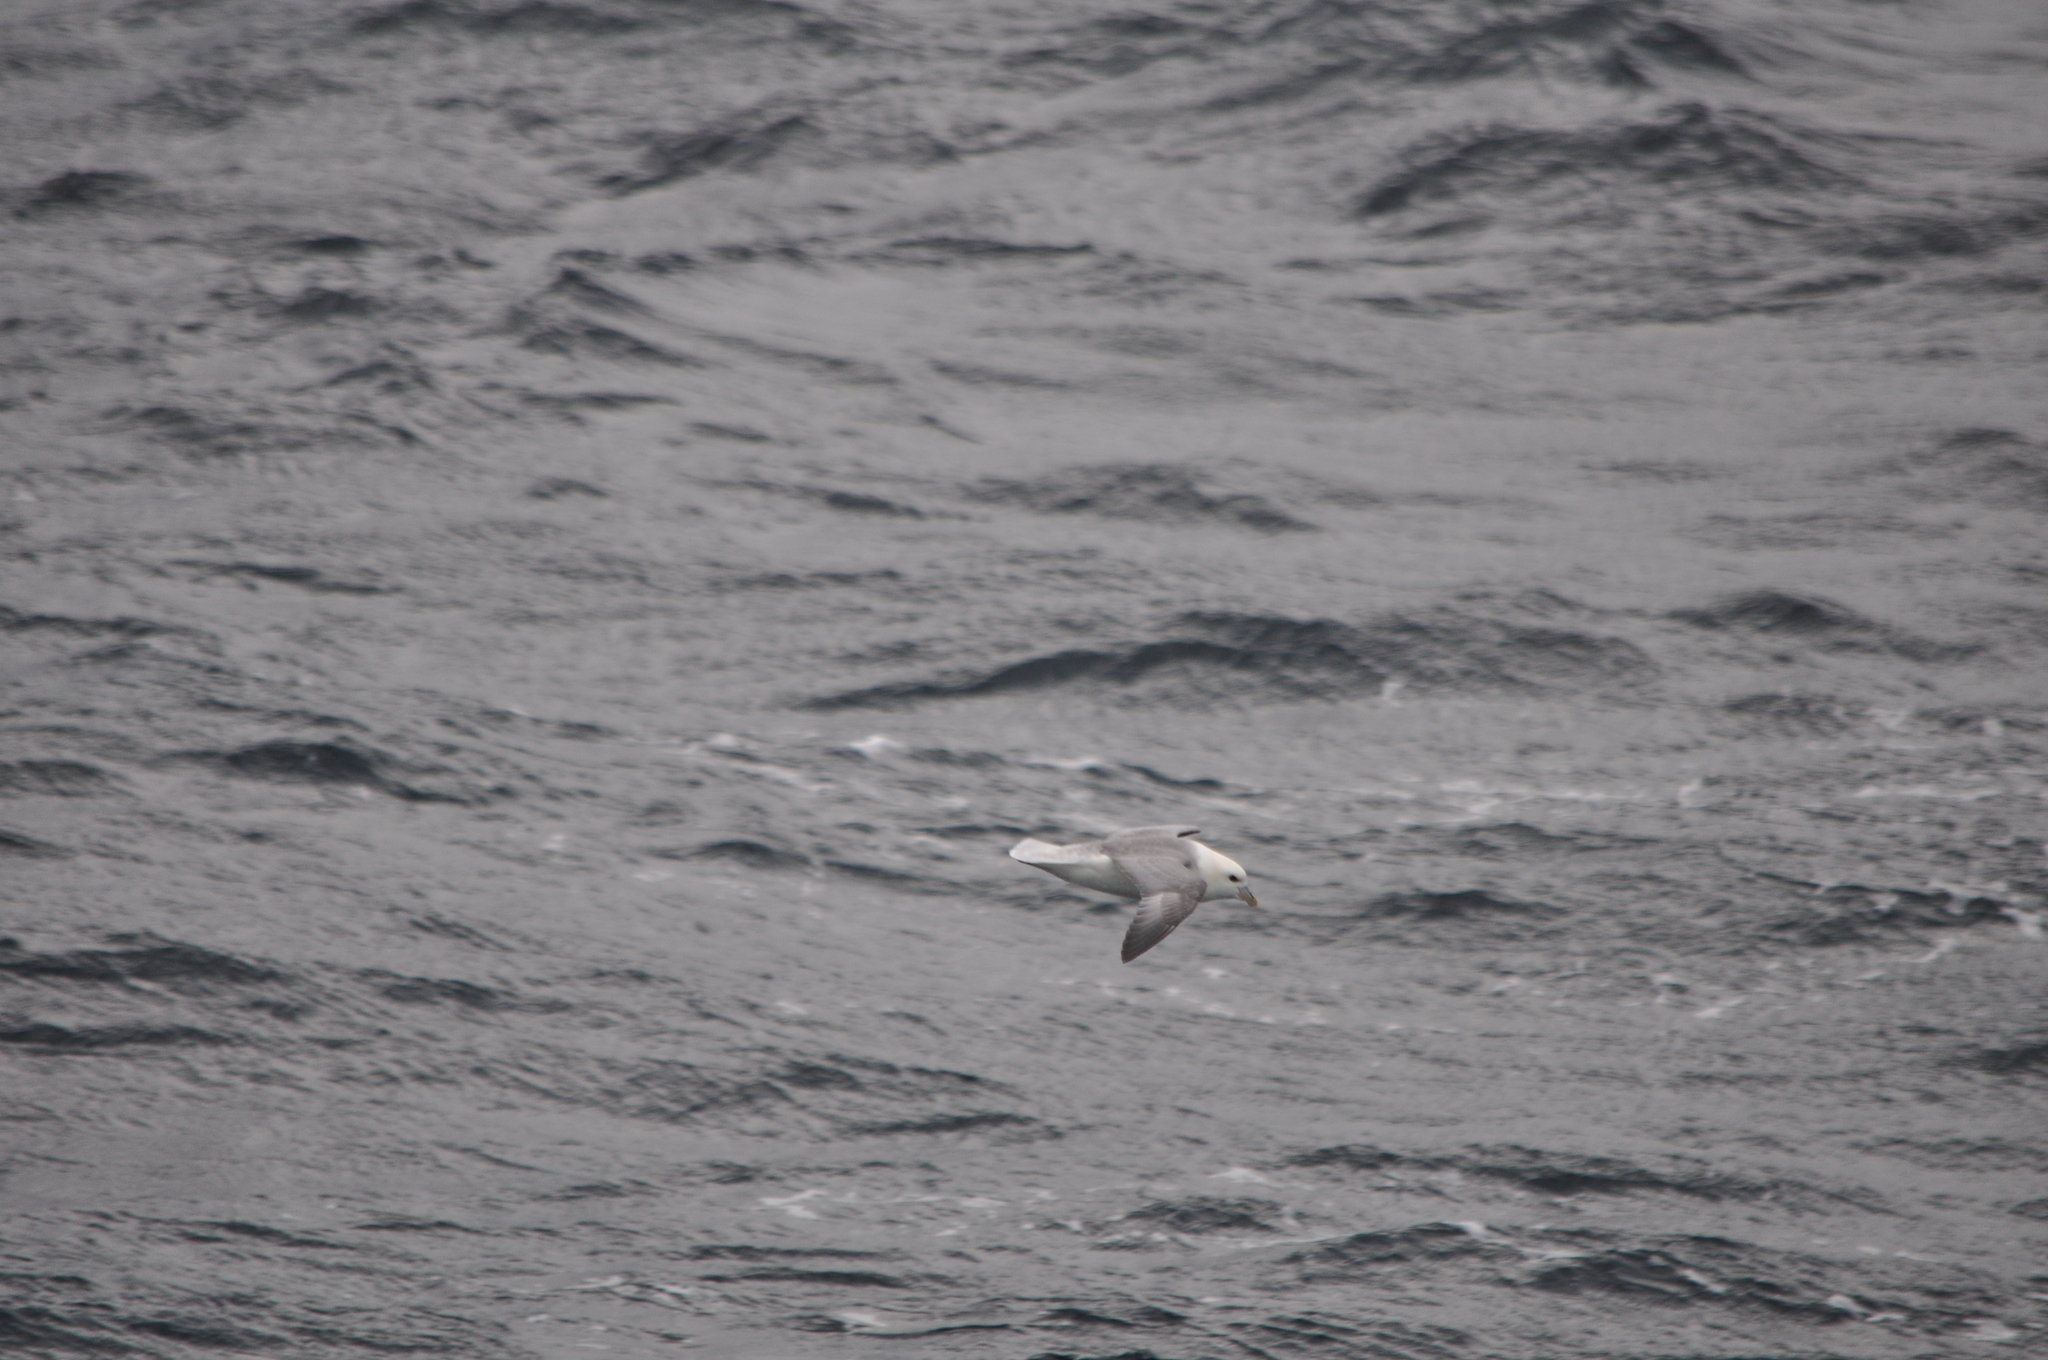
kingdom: Animalia
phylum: Chordata
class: Aves
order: Procellariiformes
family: Procellariidae
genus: Fulmarus
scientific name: Fulmarus glacialis
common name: Northern fulmar
